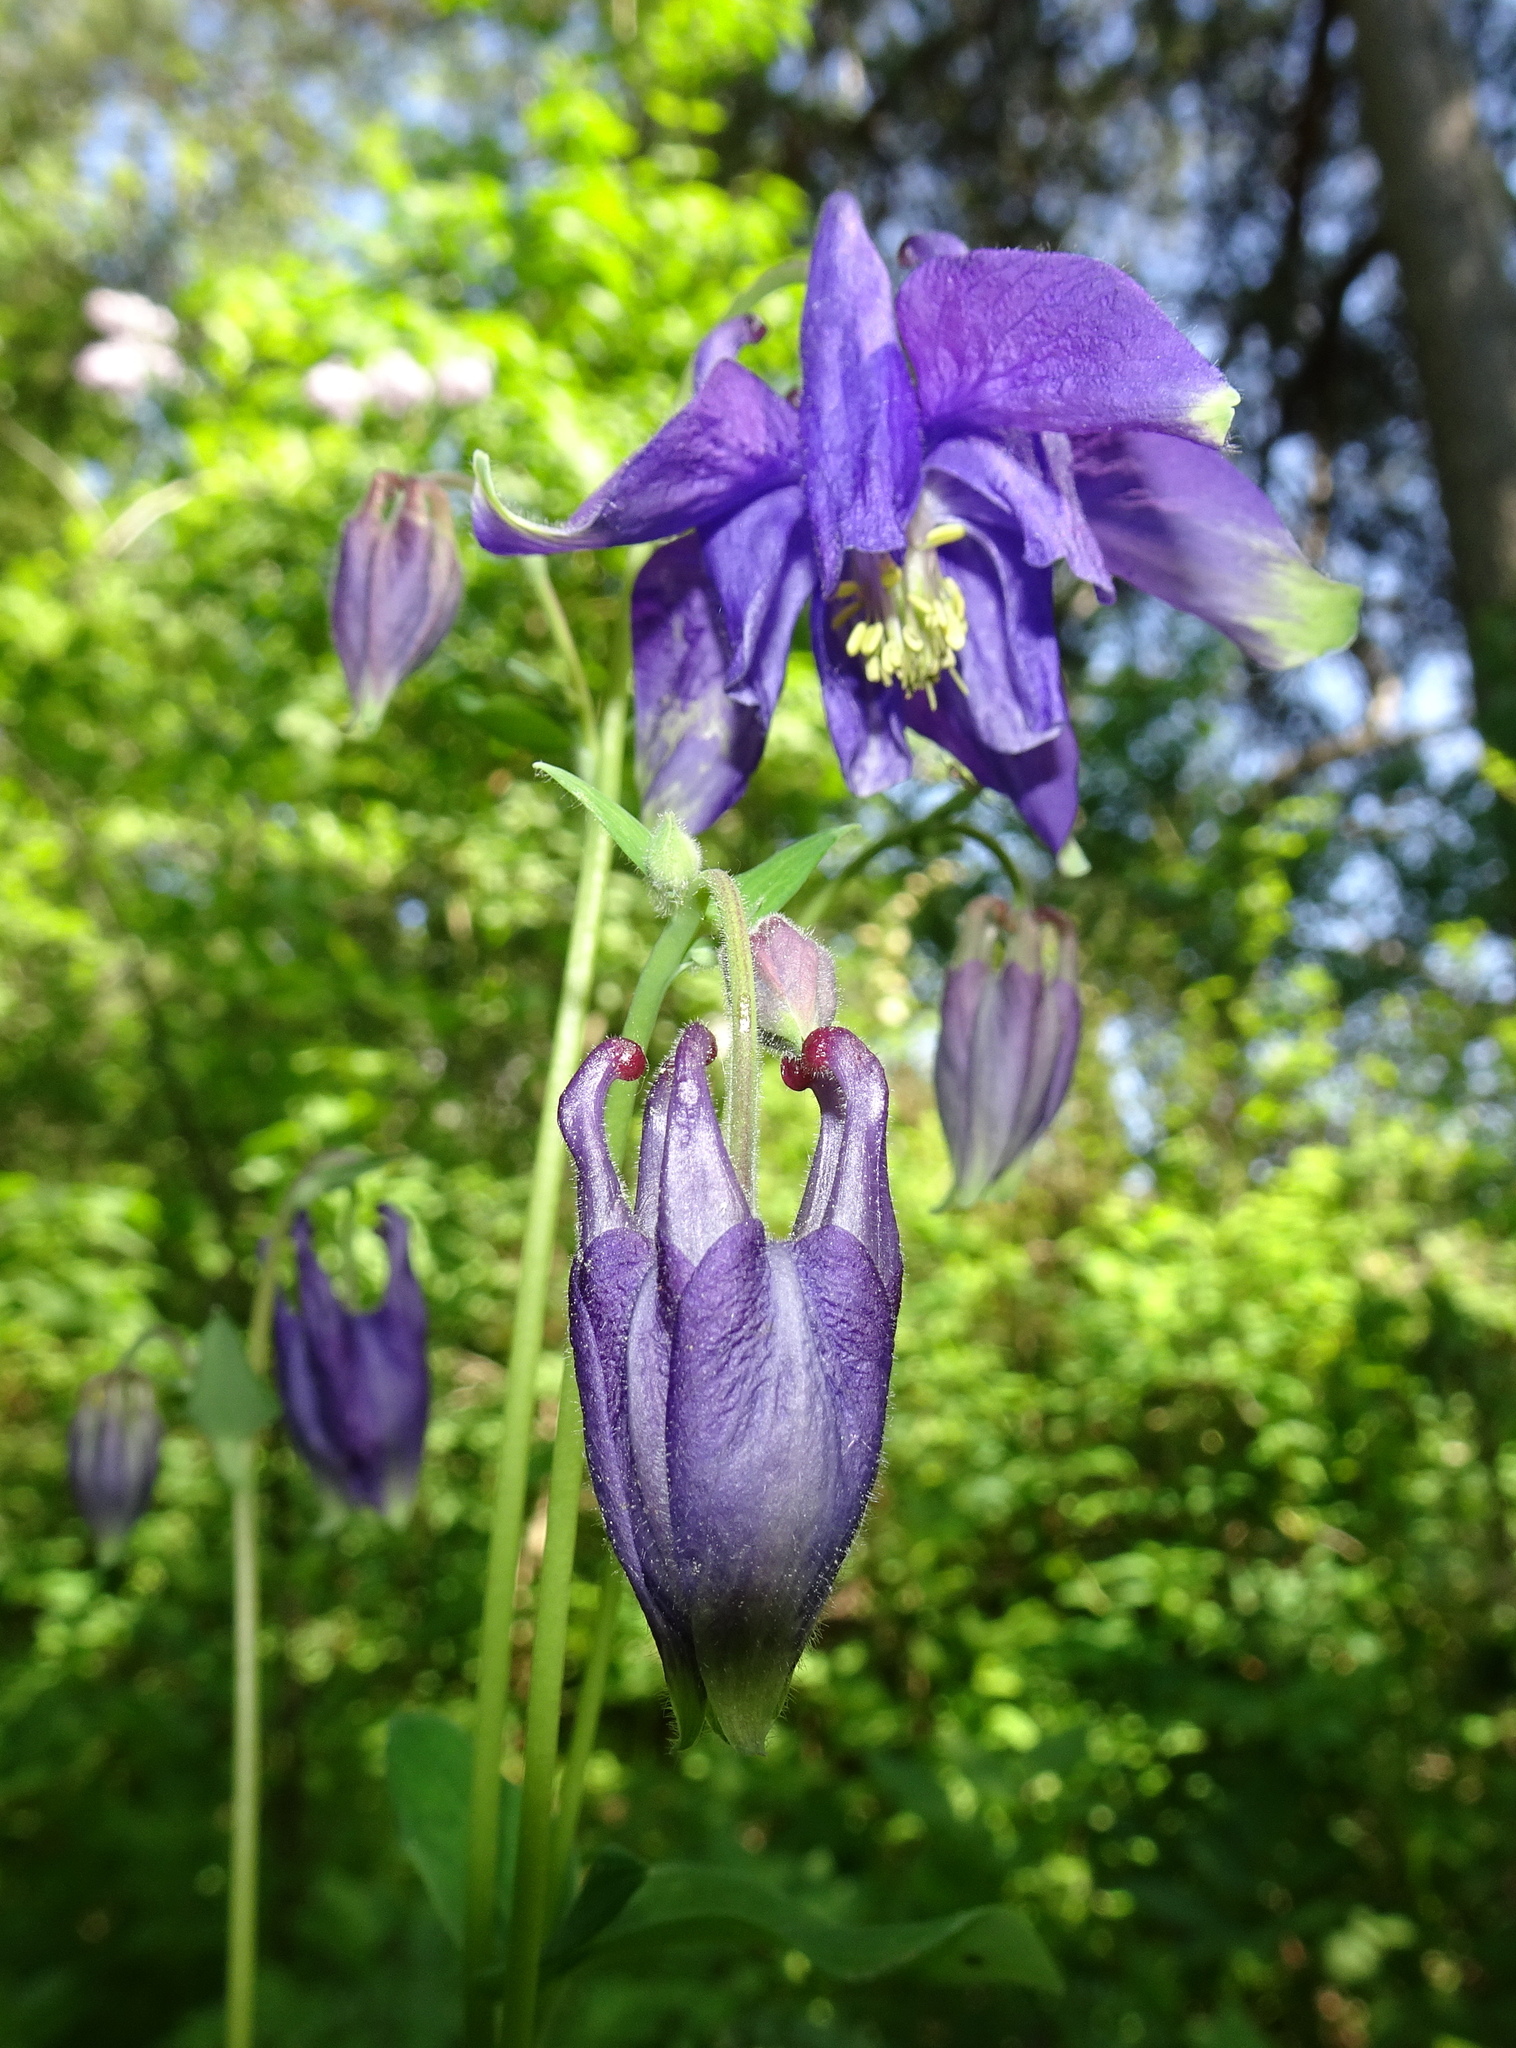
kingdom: Plantae
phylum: Tracheophyta
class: Magnoliopsida
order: Ranunculales
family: Ranunculaceae
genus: Aquilegia
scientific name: Aquilegia vulgaris
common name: Columbine
